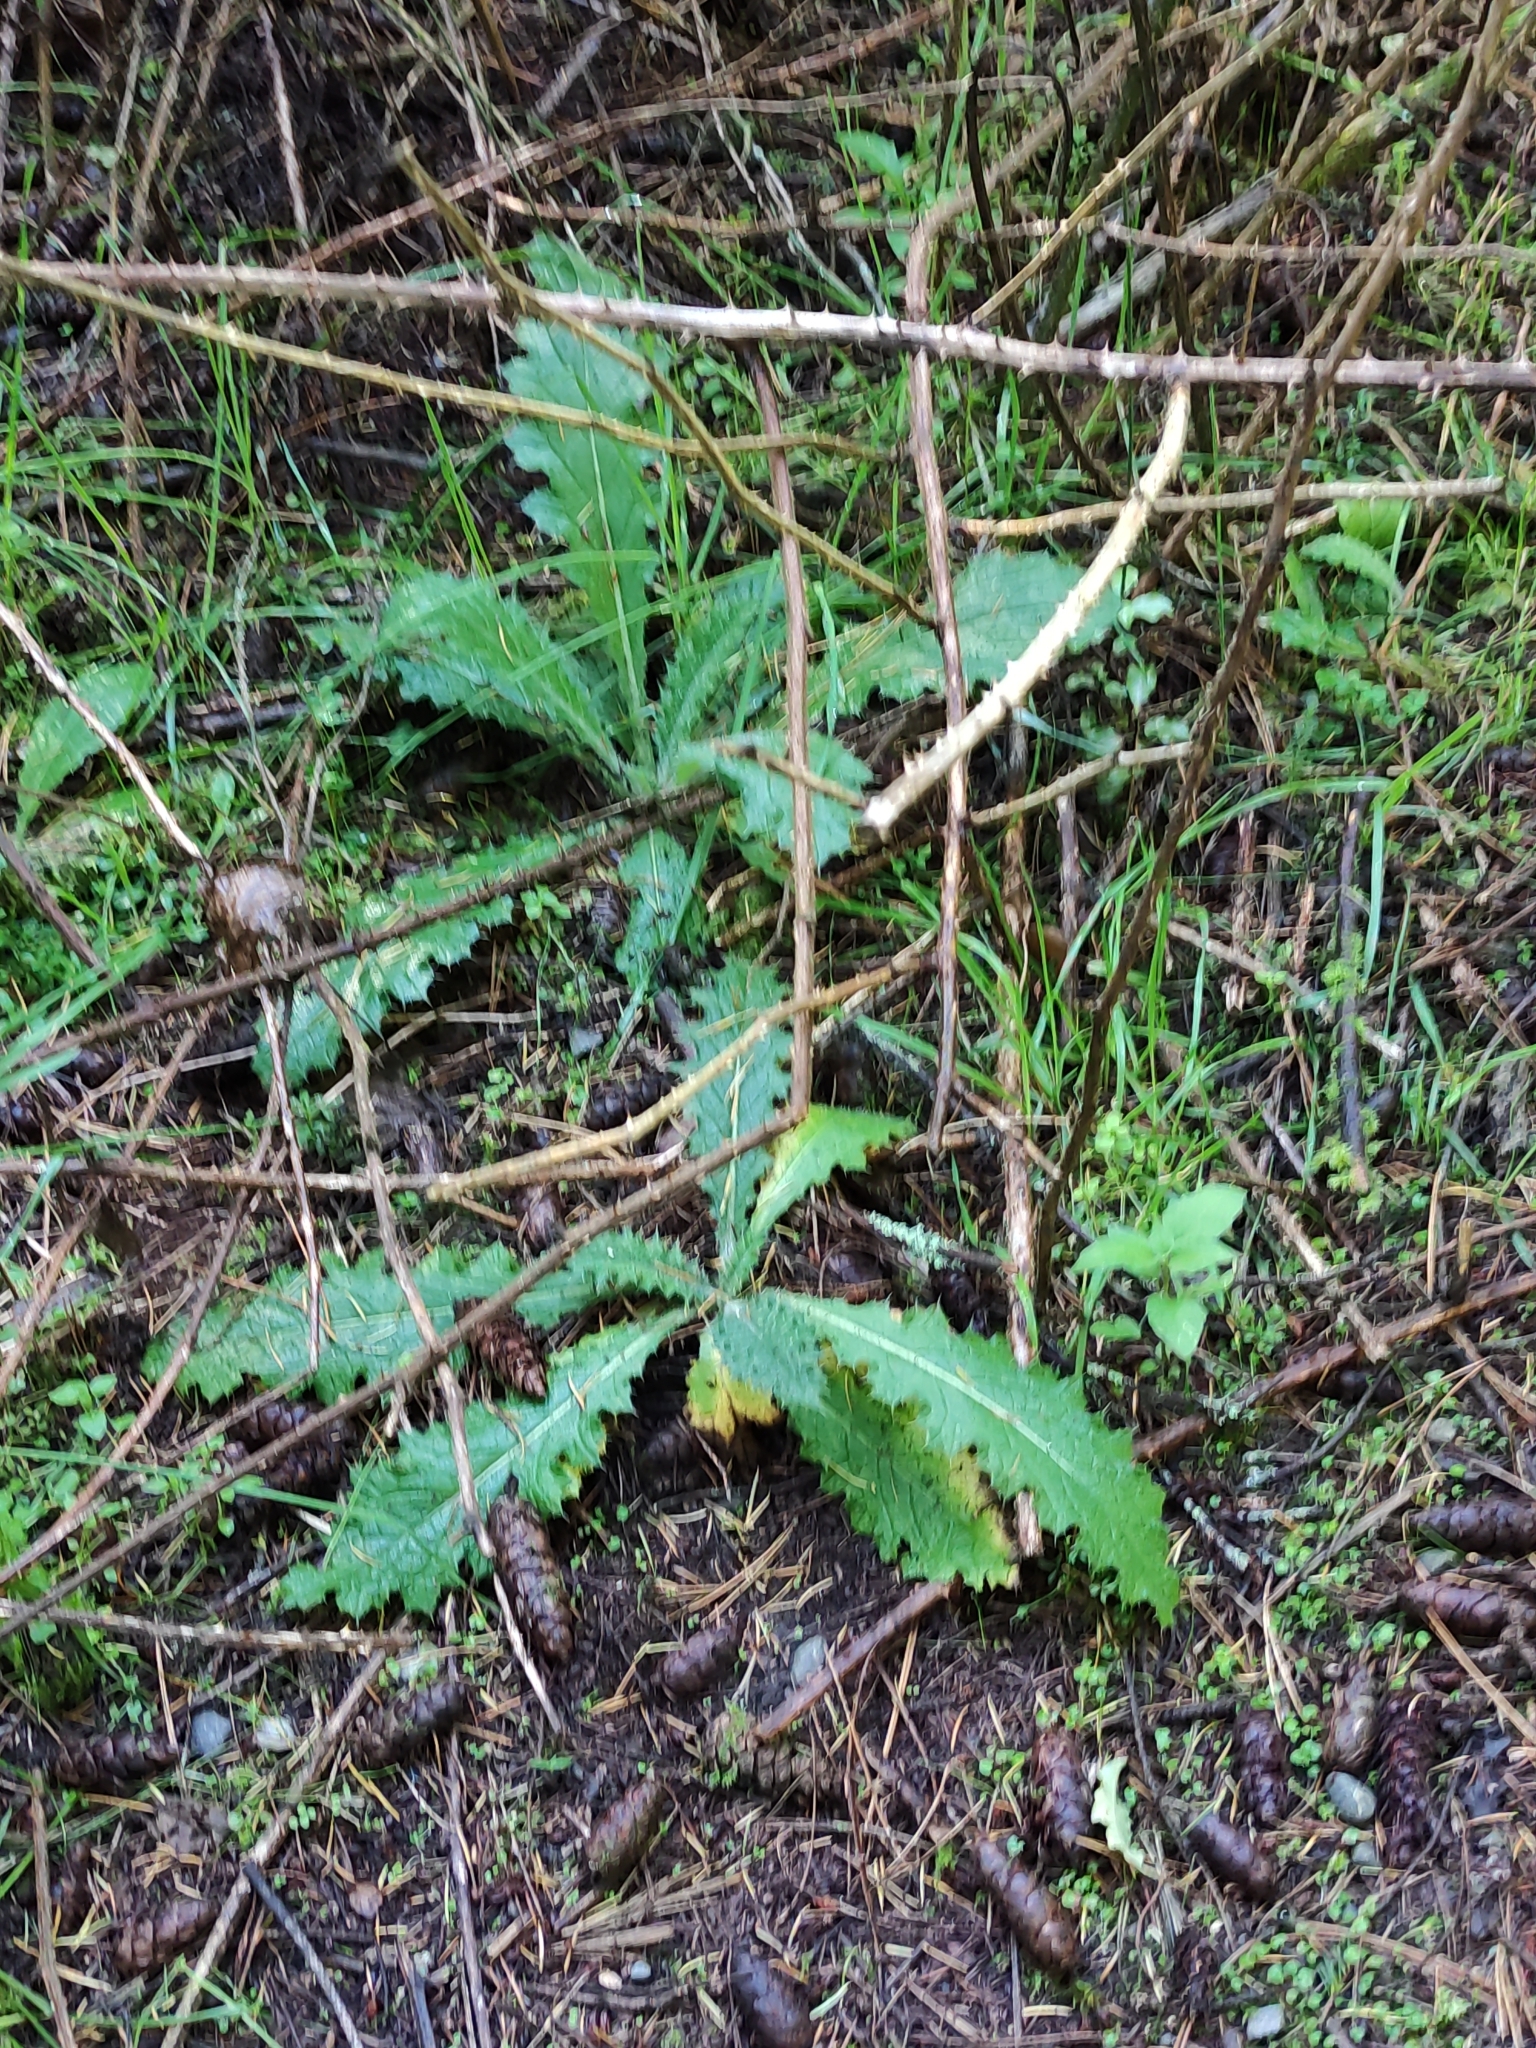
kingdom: Plantae
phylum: Tracheophyta
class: Magnoliopsida
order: Asterales
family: Asteraceae
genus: Cirsium
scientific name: Cirsium vulgare
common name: Bull thistle
